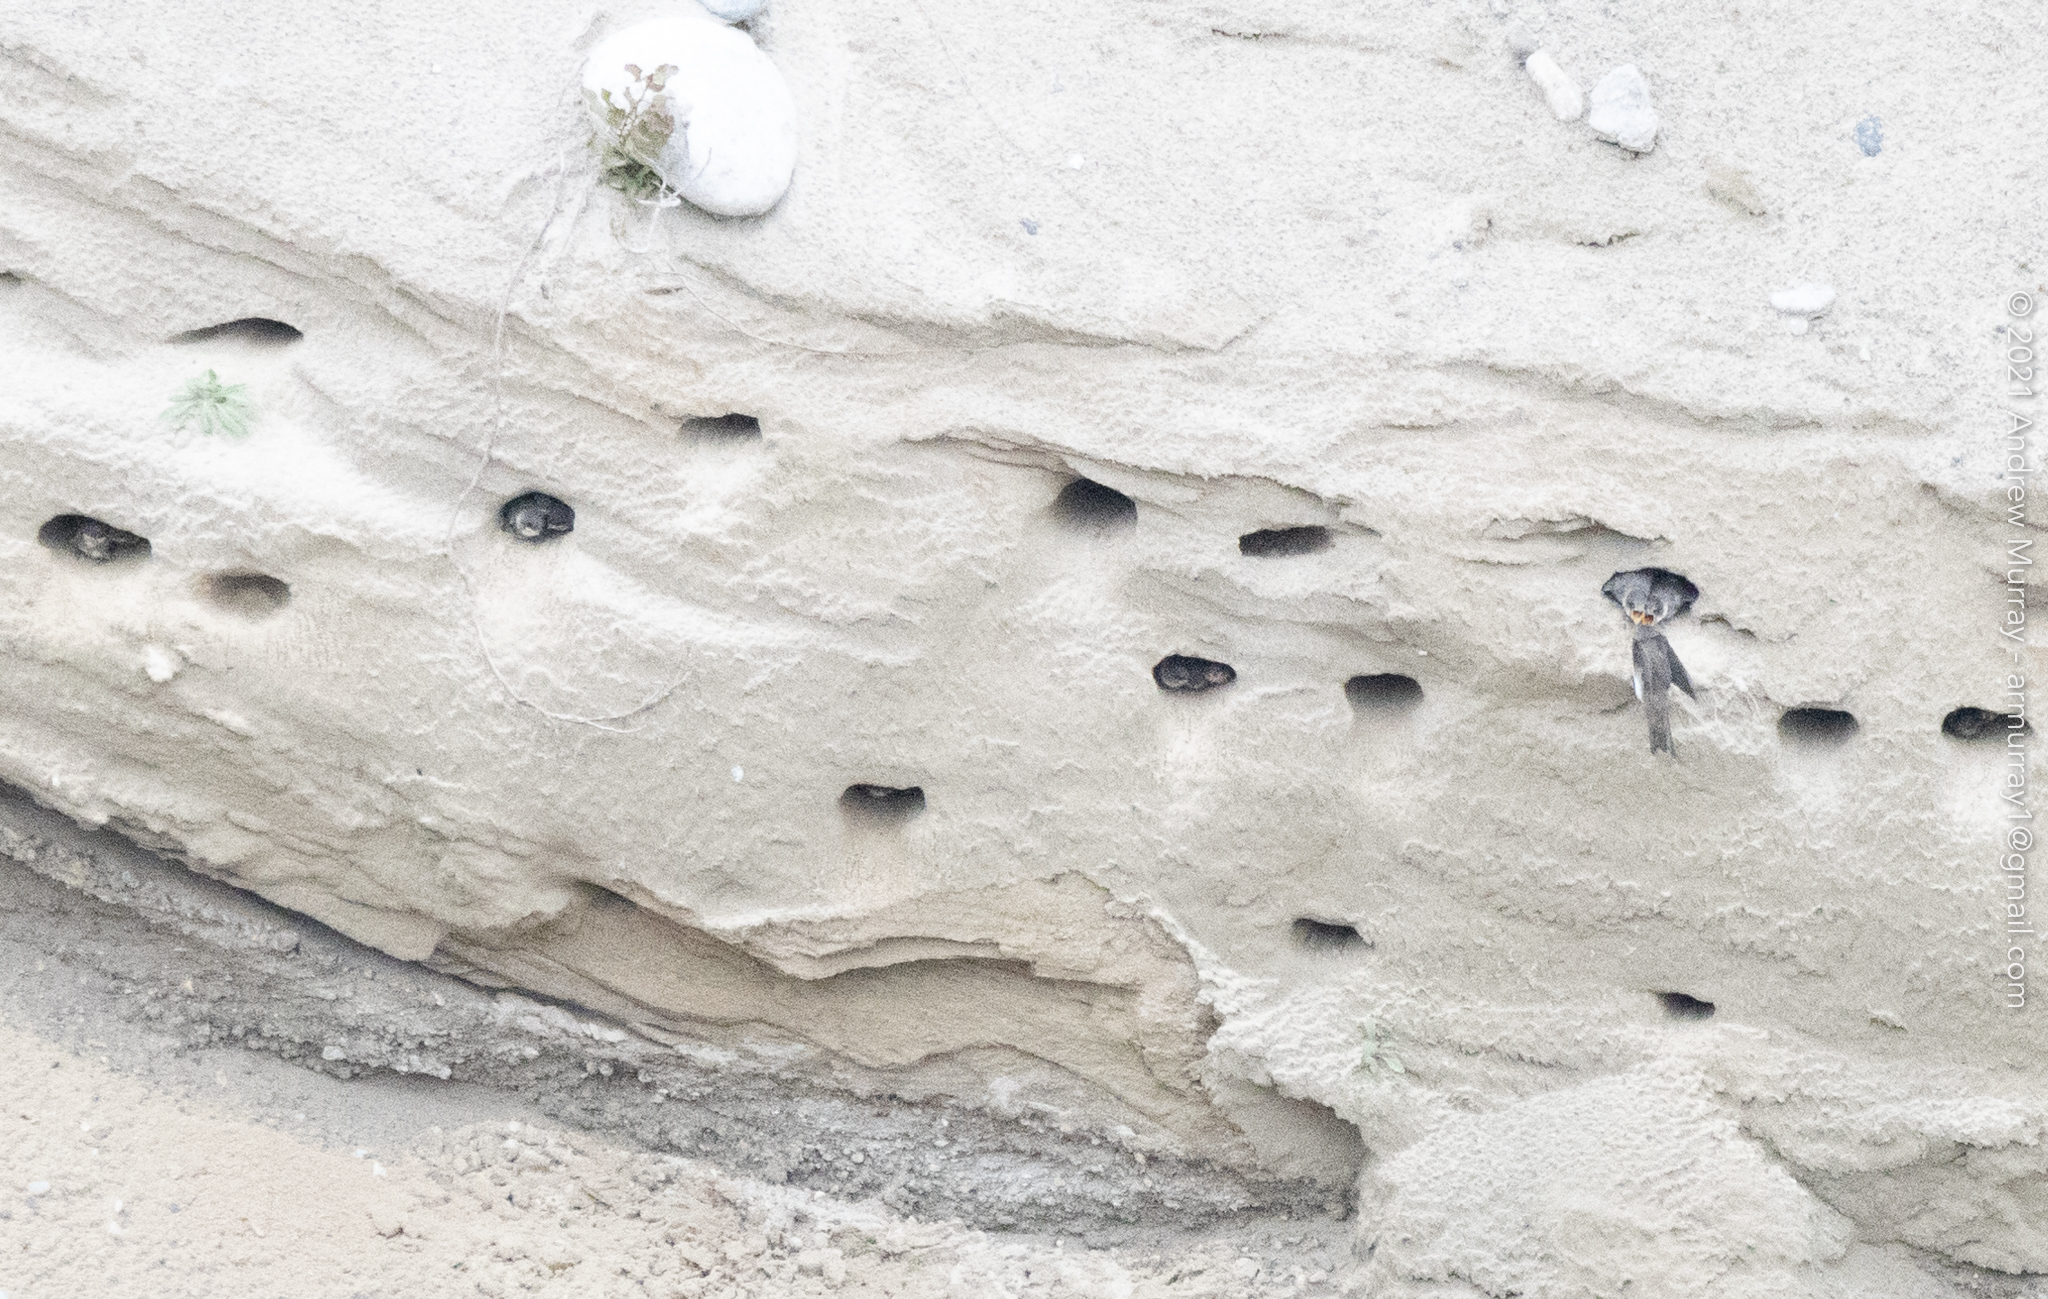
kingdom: Animalia
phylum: Chordata
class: Aves
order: Passeriformes
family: Hirundinidae
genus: Riparia
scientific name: Riparia riparia
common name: Sand martin
